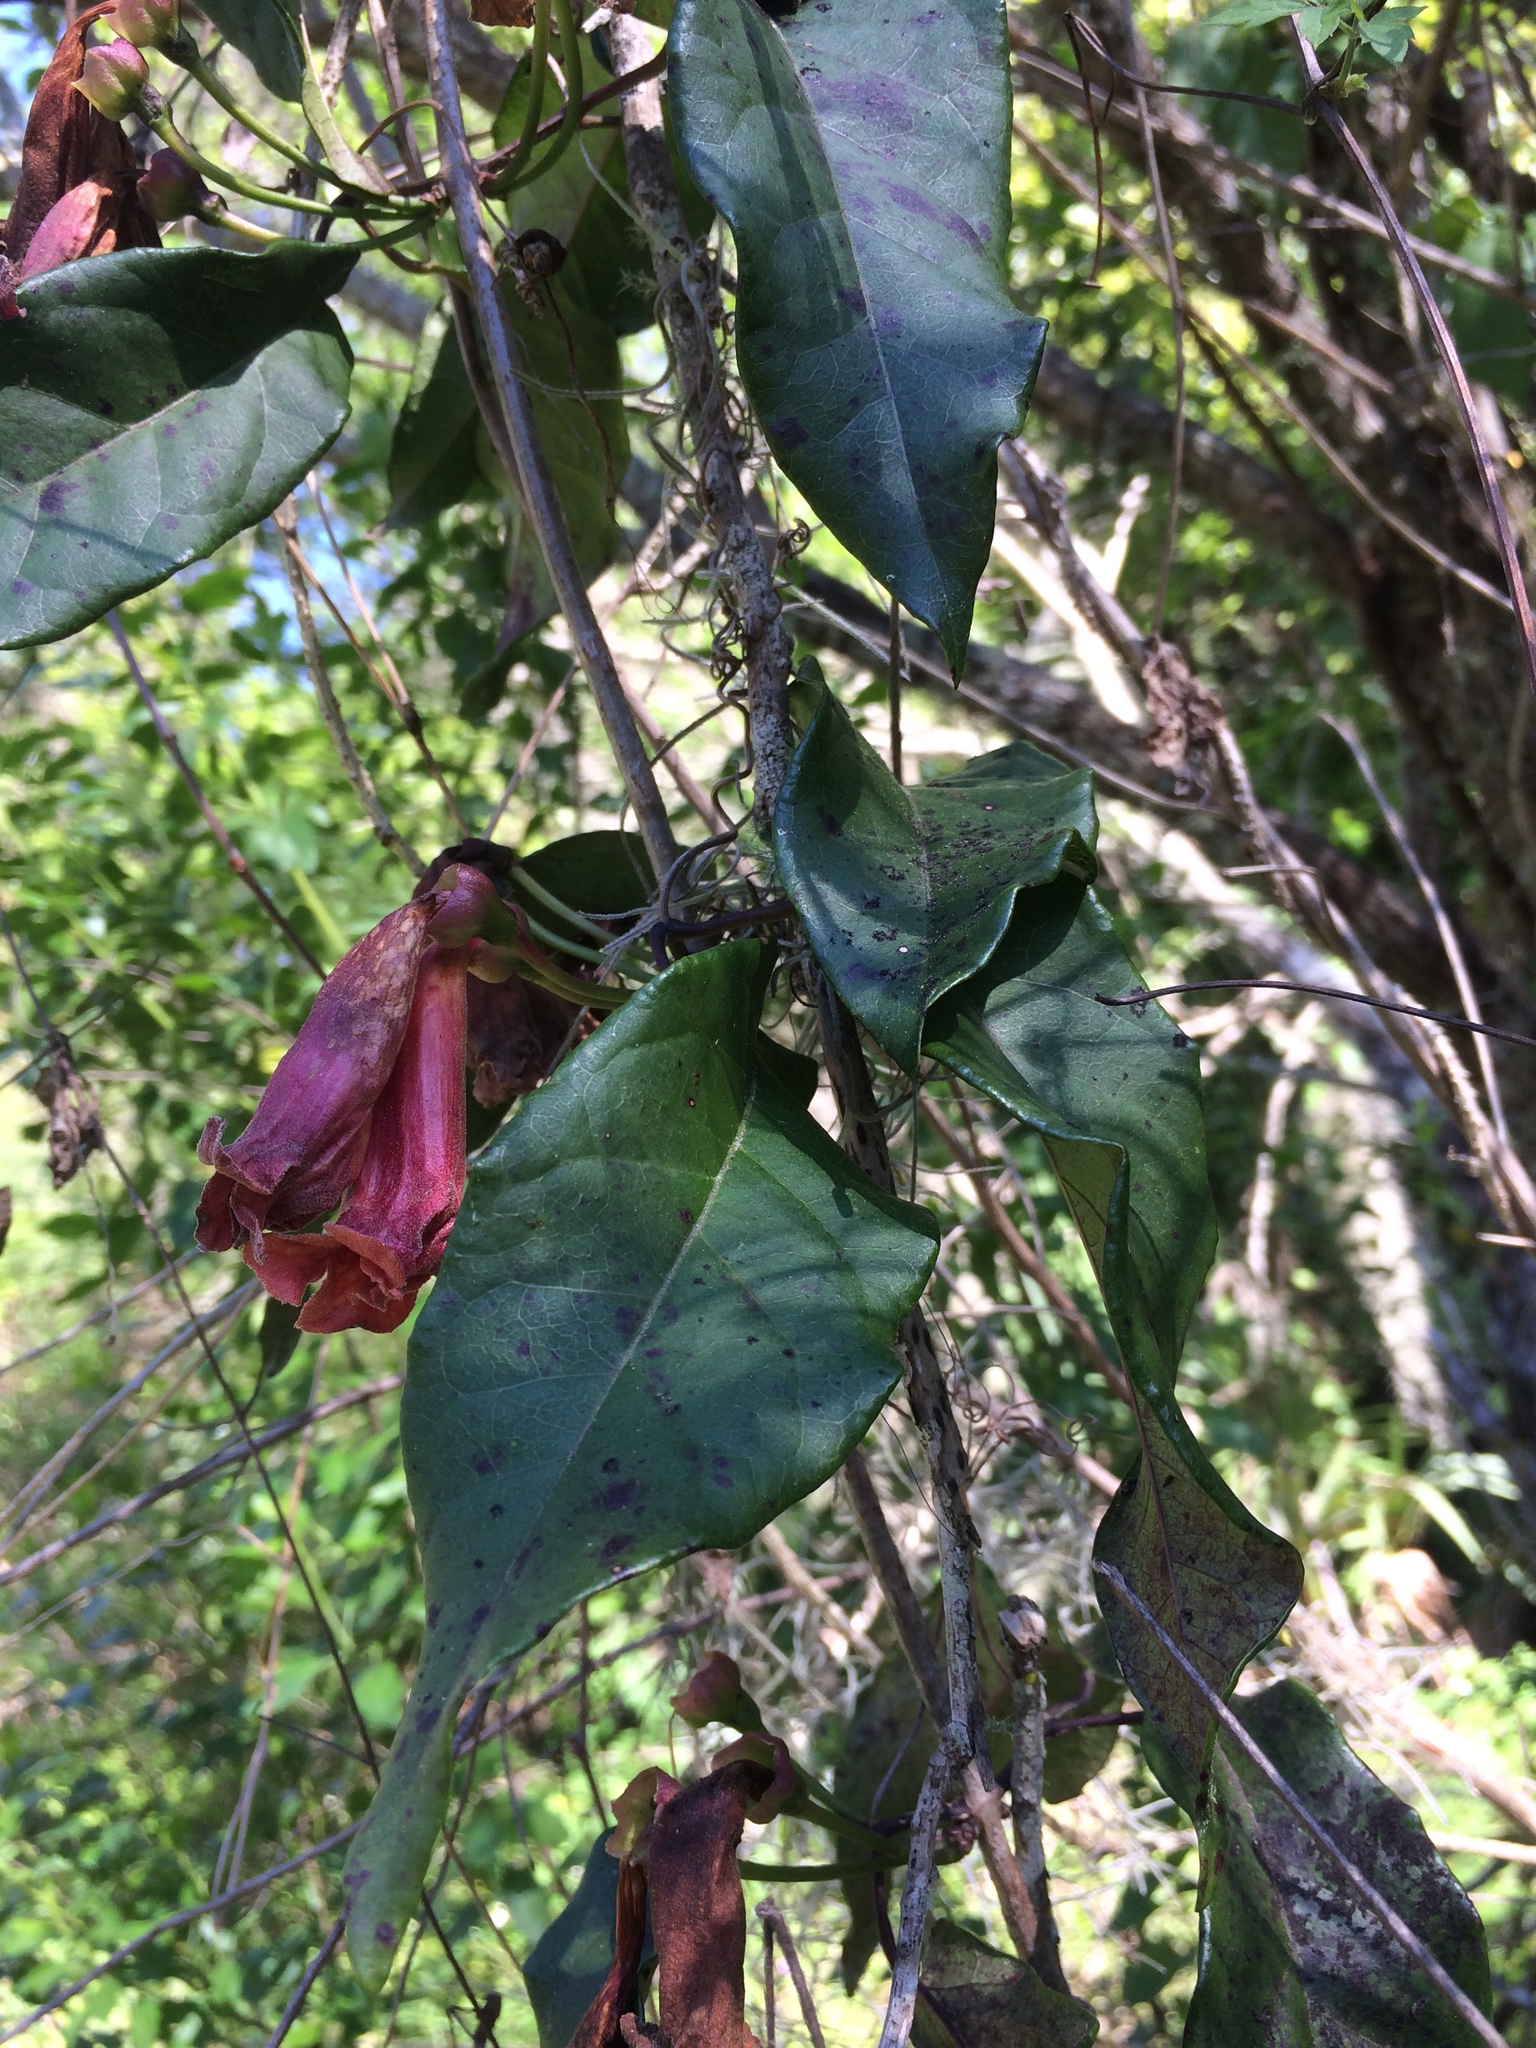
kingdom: Plantae
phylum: Tracheophyta
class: Magnoliopsida
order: Lamiales
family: Bignoniaceae
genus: Bignonia
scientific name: Bignonia capreolata
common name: Crossvine
